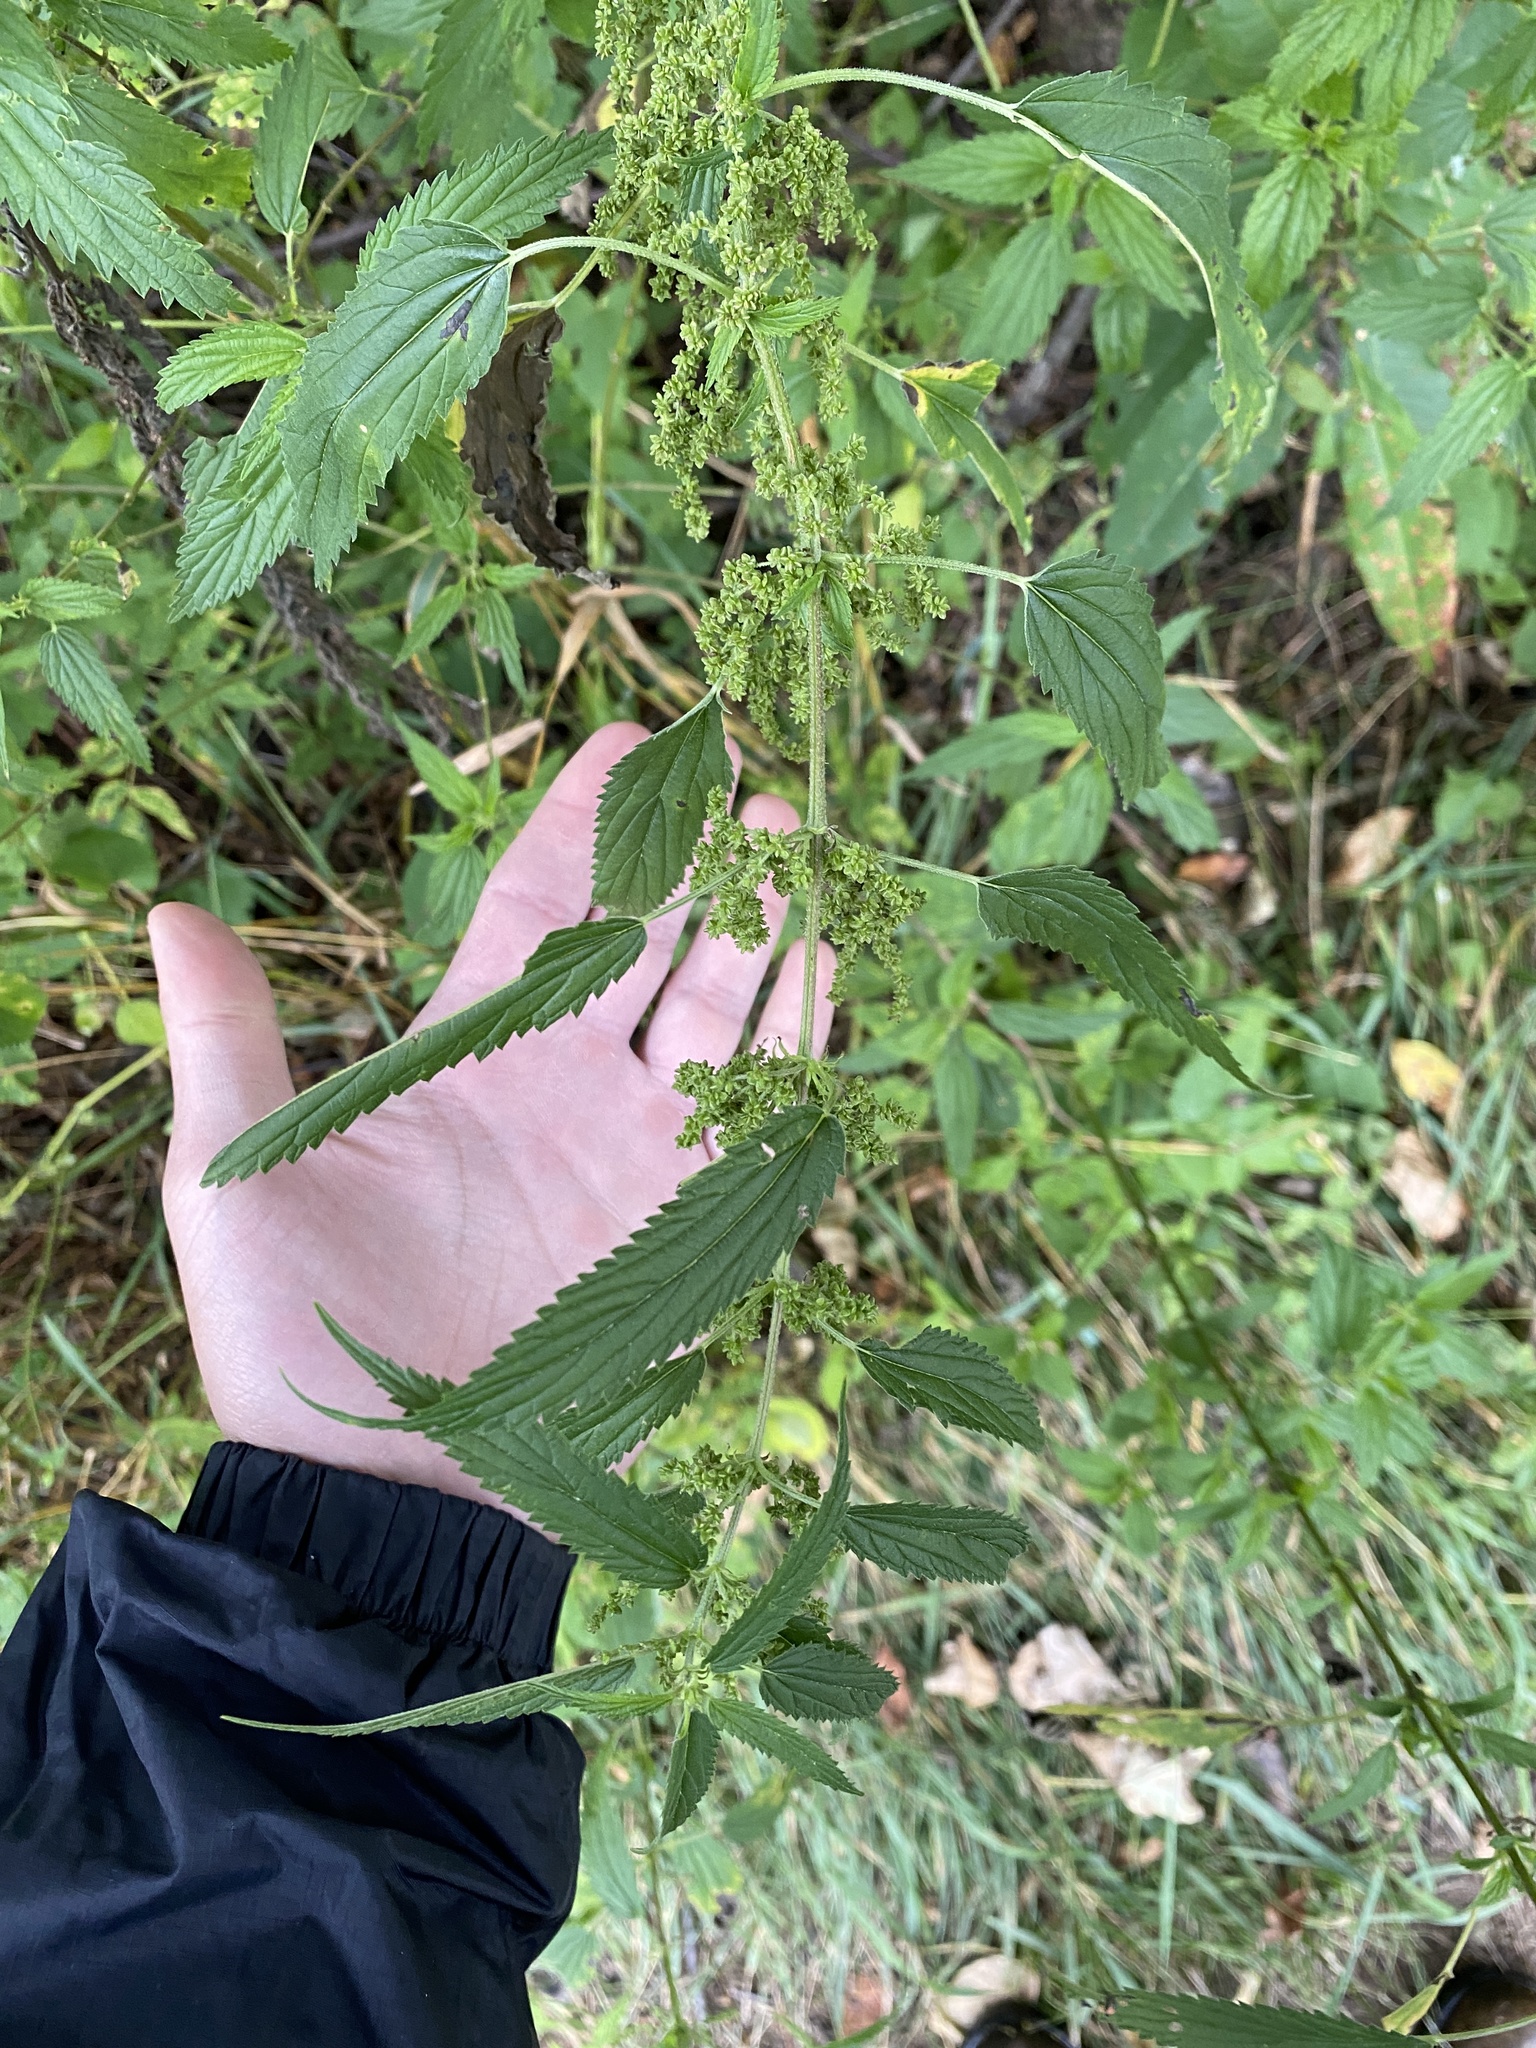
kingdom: Plantae
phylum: Tracheophyta
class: Magnoliopsida
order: Rosales
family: Urticaceae
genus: Urtica
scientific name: Urtica dioica
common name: Common nettle
